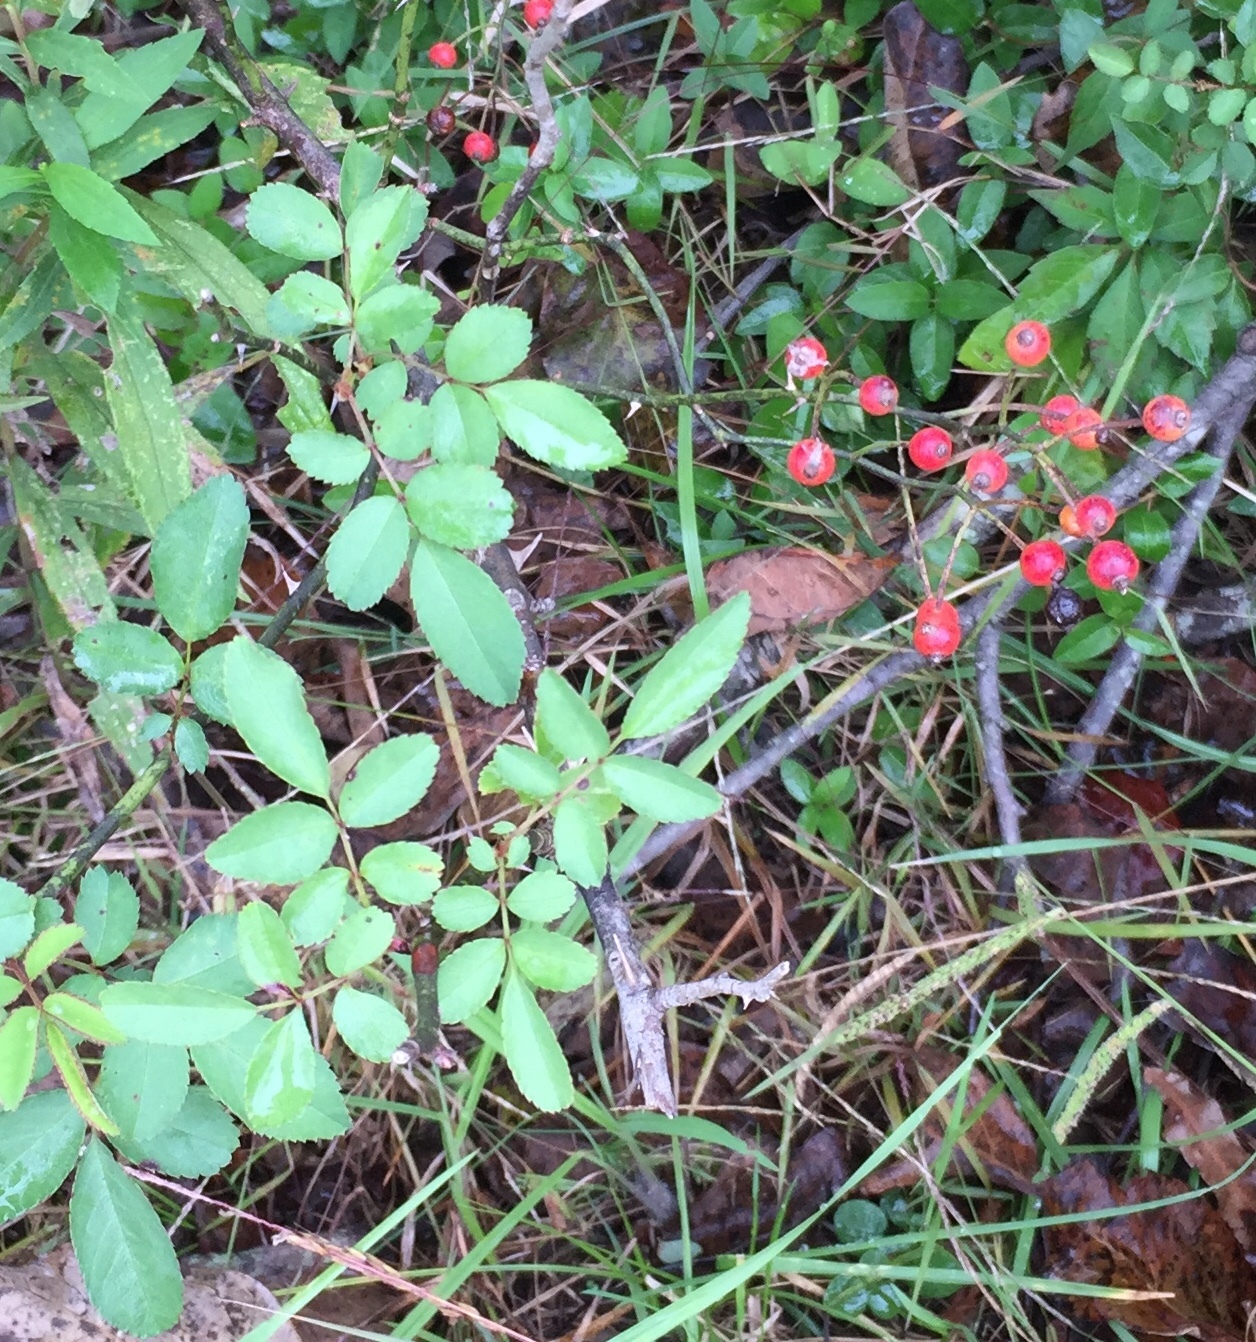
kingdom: Plantae
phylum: Tracheophyta
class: Magnoliopsida
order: Rosales
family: Rosaceae
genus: Rosa
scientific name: Rosa multiflora
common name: Multiflora rose
